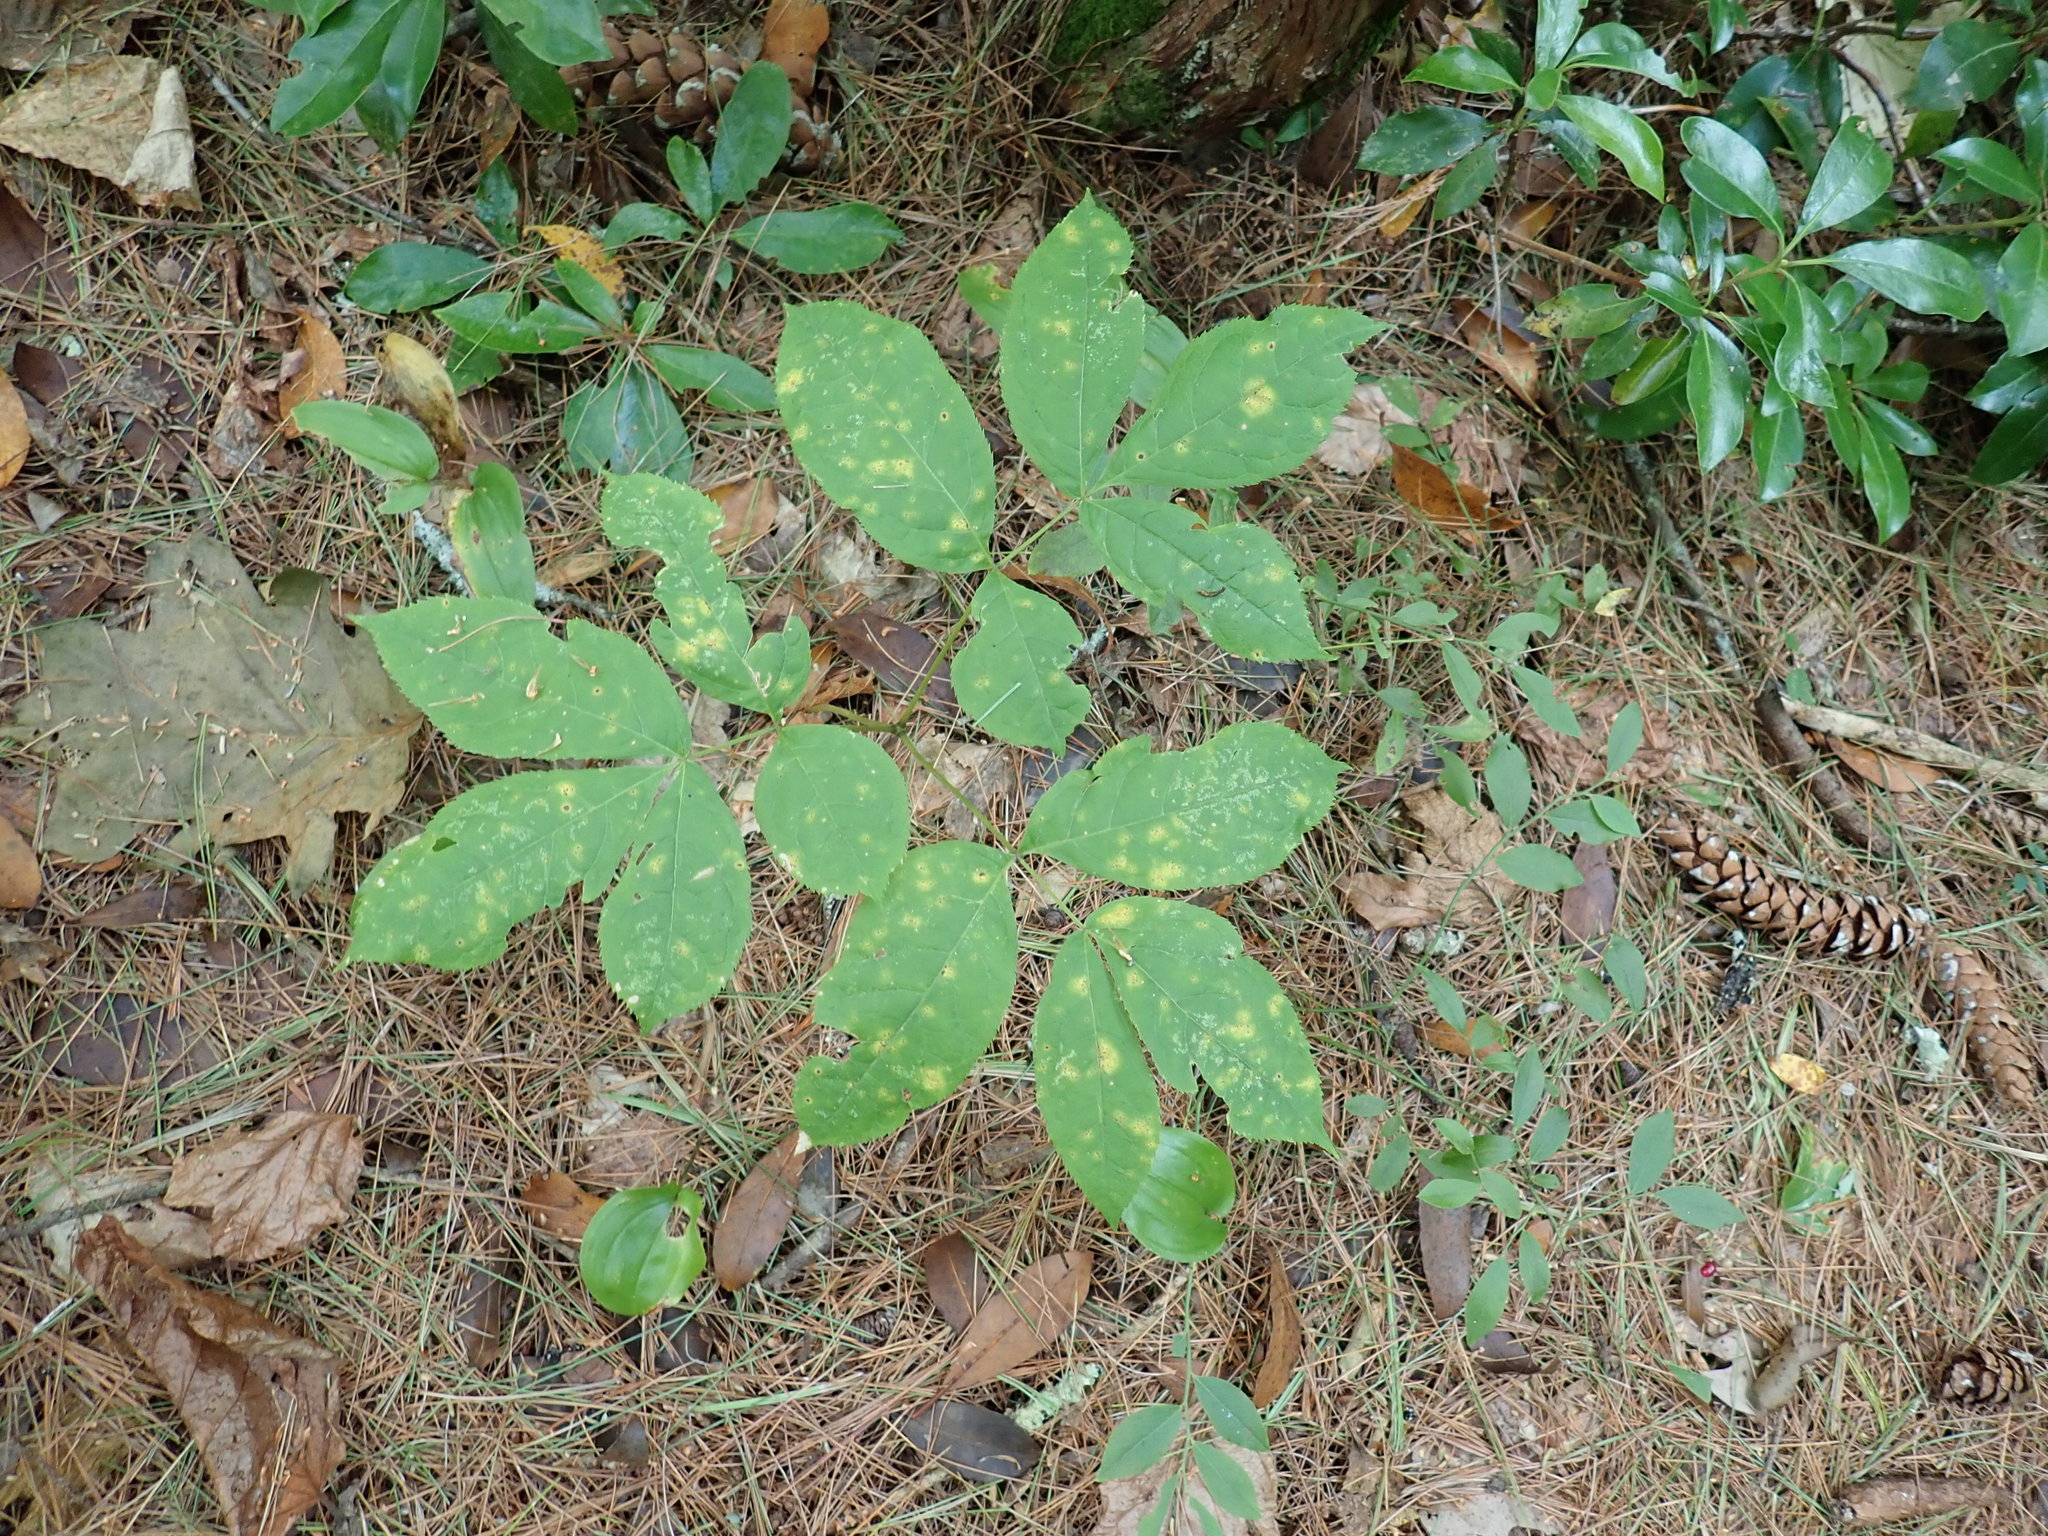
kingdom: Plantae
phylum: Tracheophyta
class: Magnoliopsida
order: Apiales
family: Araliaceae
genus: Aralia
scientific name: Aralia nudicaulis
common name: Wild sarsaparilla
